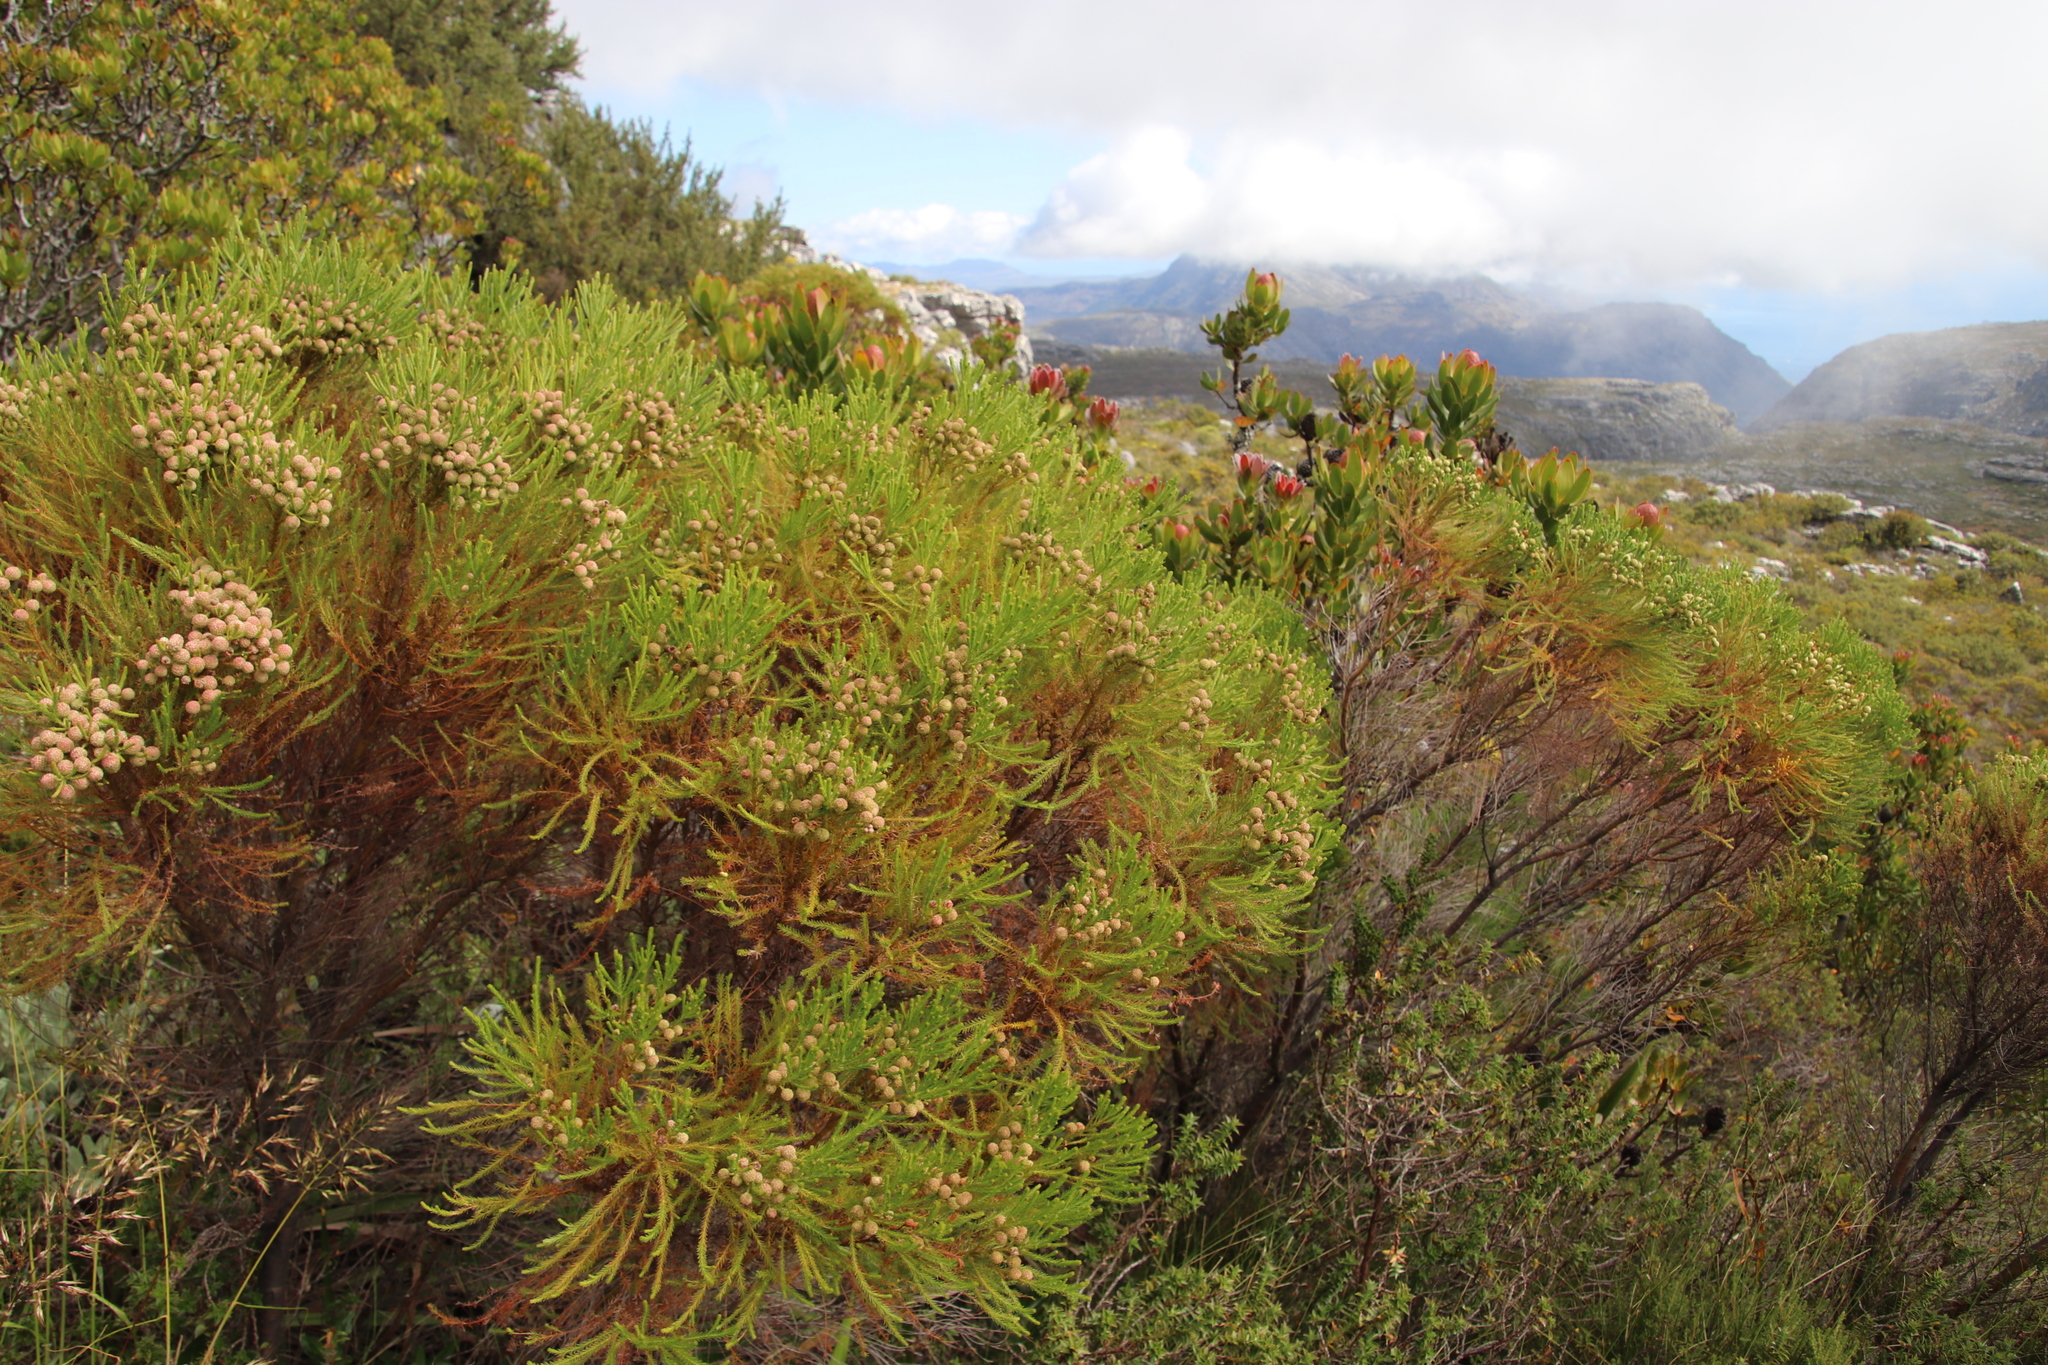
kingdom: Plantae
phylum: Tracheophyta
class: Magnoliopsida
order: Bruniales
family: Bruniaceae
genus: Berzelia
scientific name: Berzelia lanuginosa
